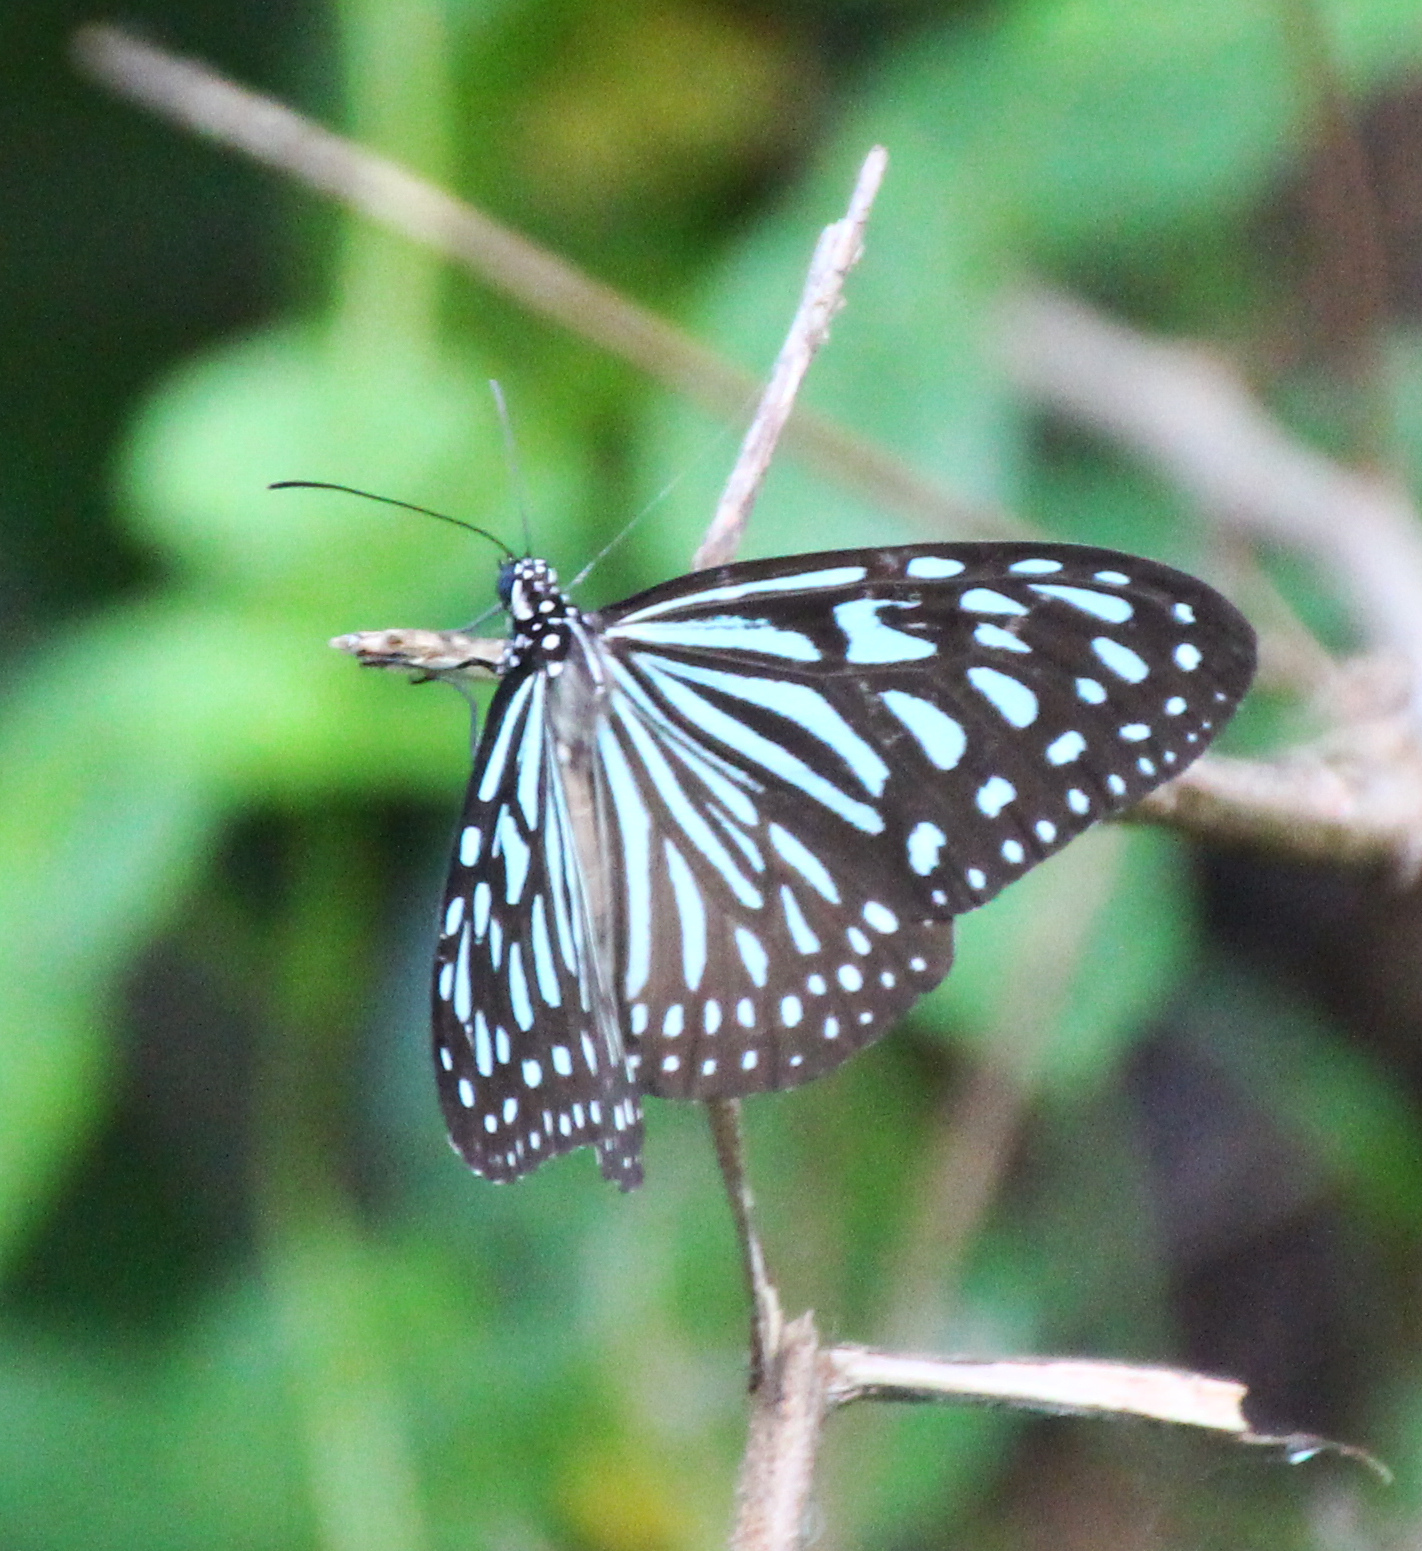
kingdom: Animalia
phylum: Arthropoda
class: Insecta
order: Lepidoptera
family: Nymphalidae
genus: Ideopsis
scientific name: Ideopsis vulgaris
